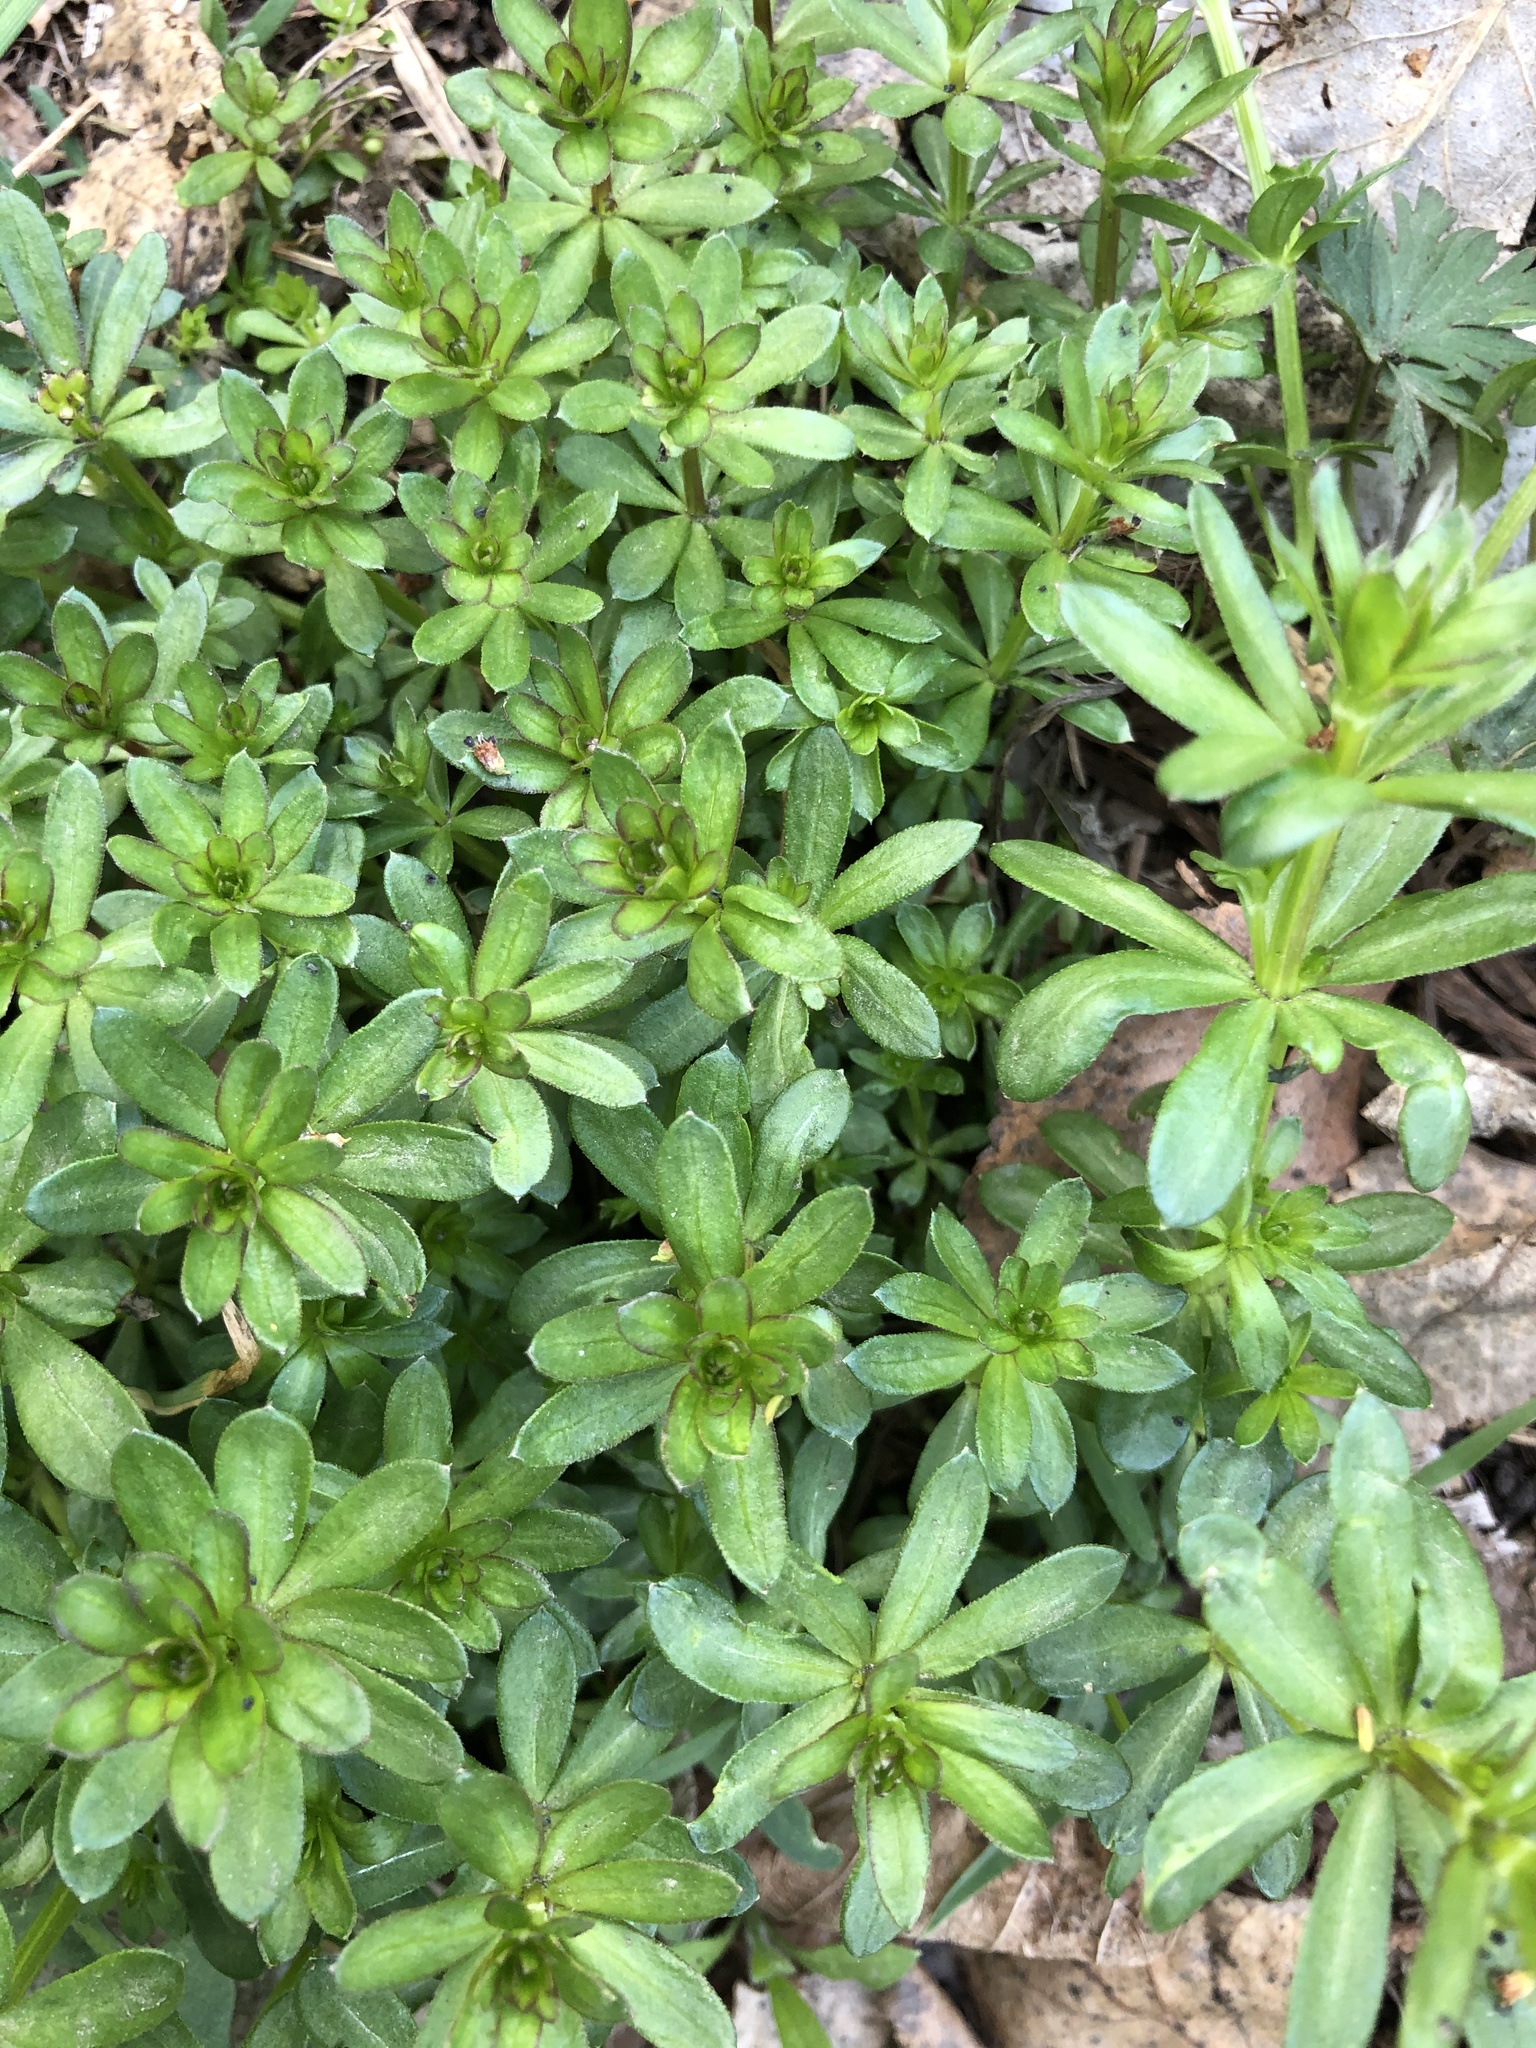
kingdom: Plantae
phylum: Tracheophyta
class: Magnoliopsida
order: Gentianales
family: Rubiaceae
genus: Galium
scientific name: Galium mollugo
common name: Hedge bedstraw
